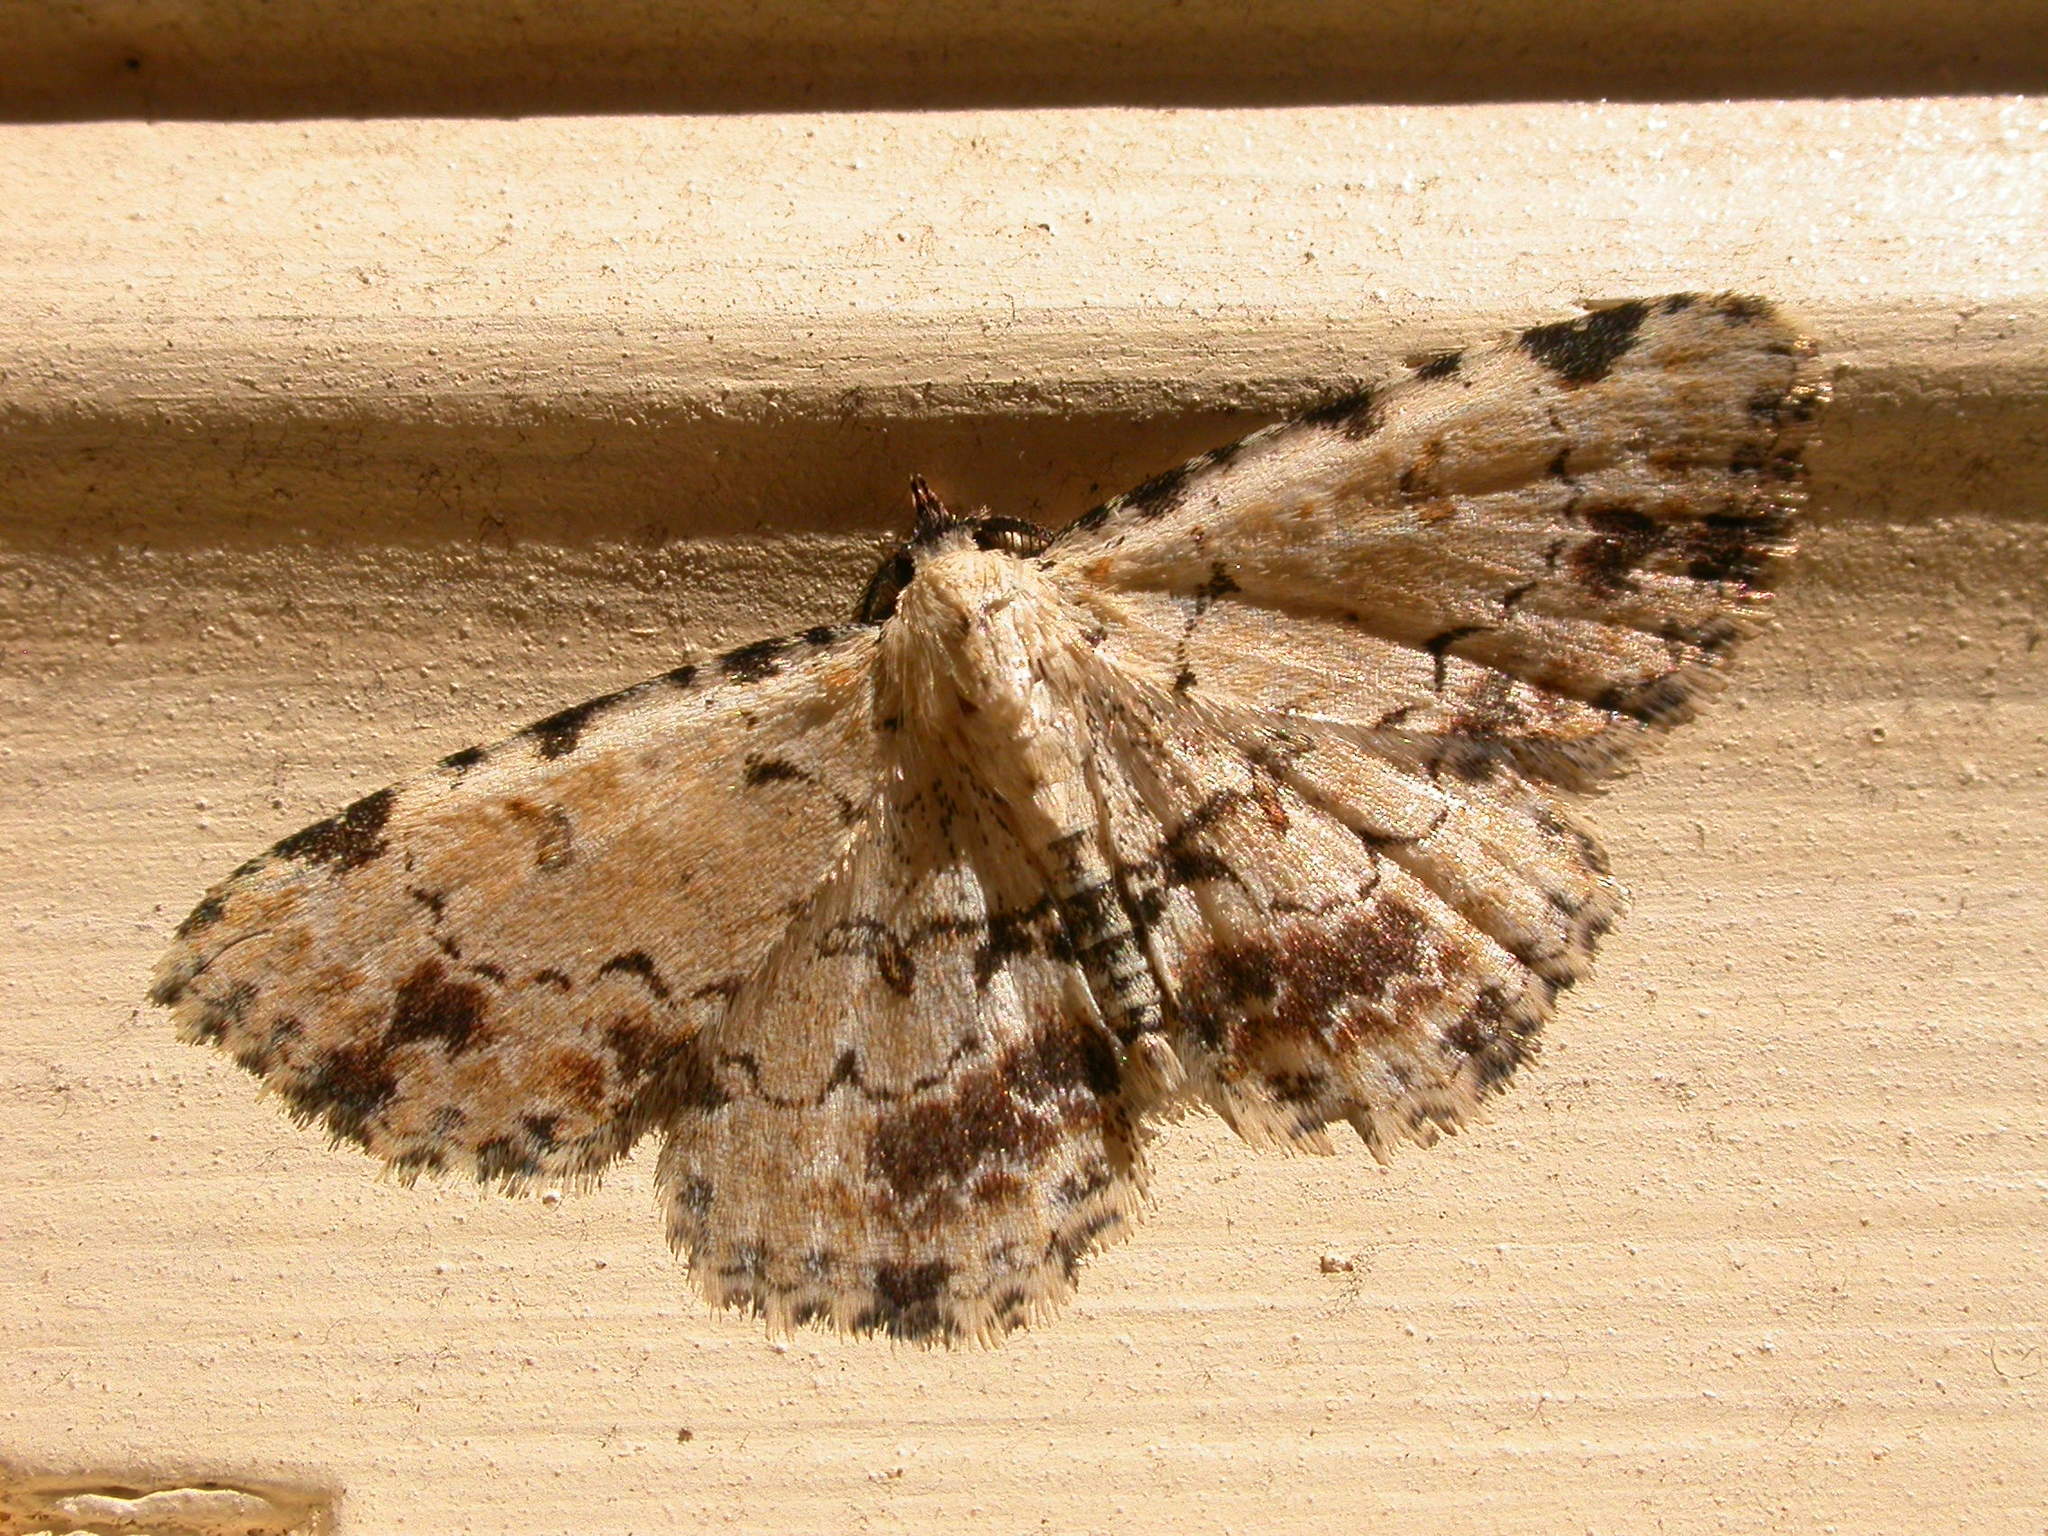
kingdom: Animalia
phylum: Arthropoda
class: Insecta
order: Lepidoptera
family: Erebidae
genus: Sandava
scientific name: Sandava scitisignata
